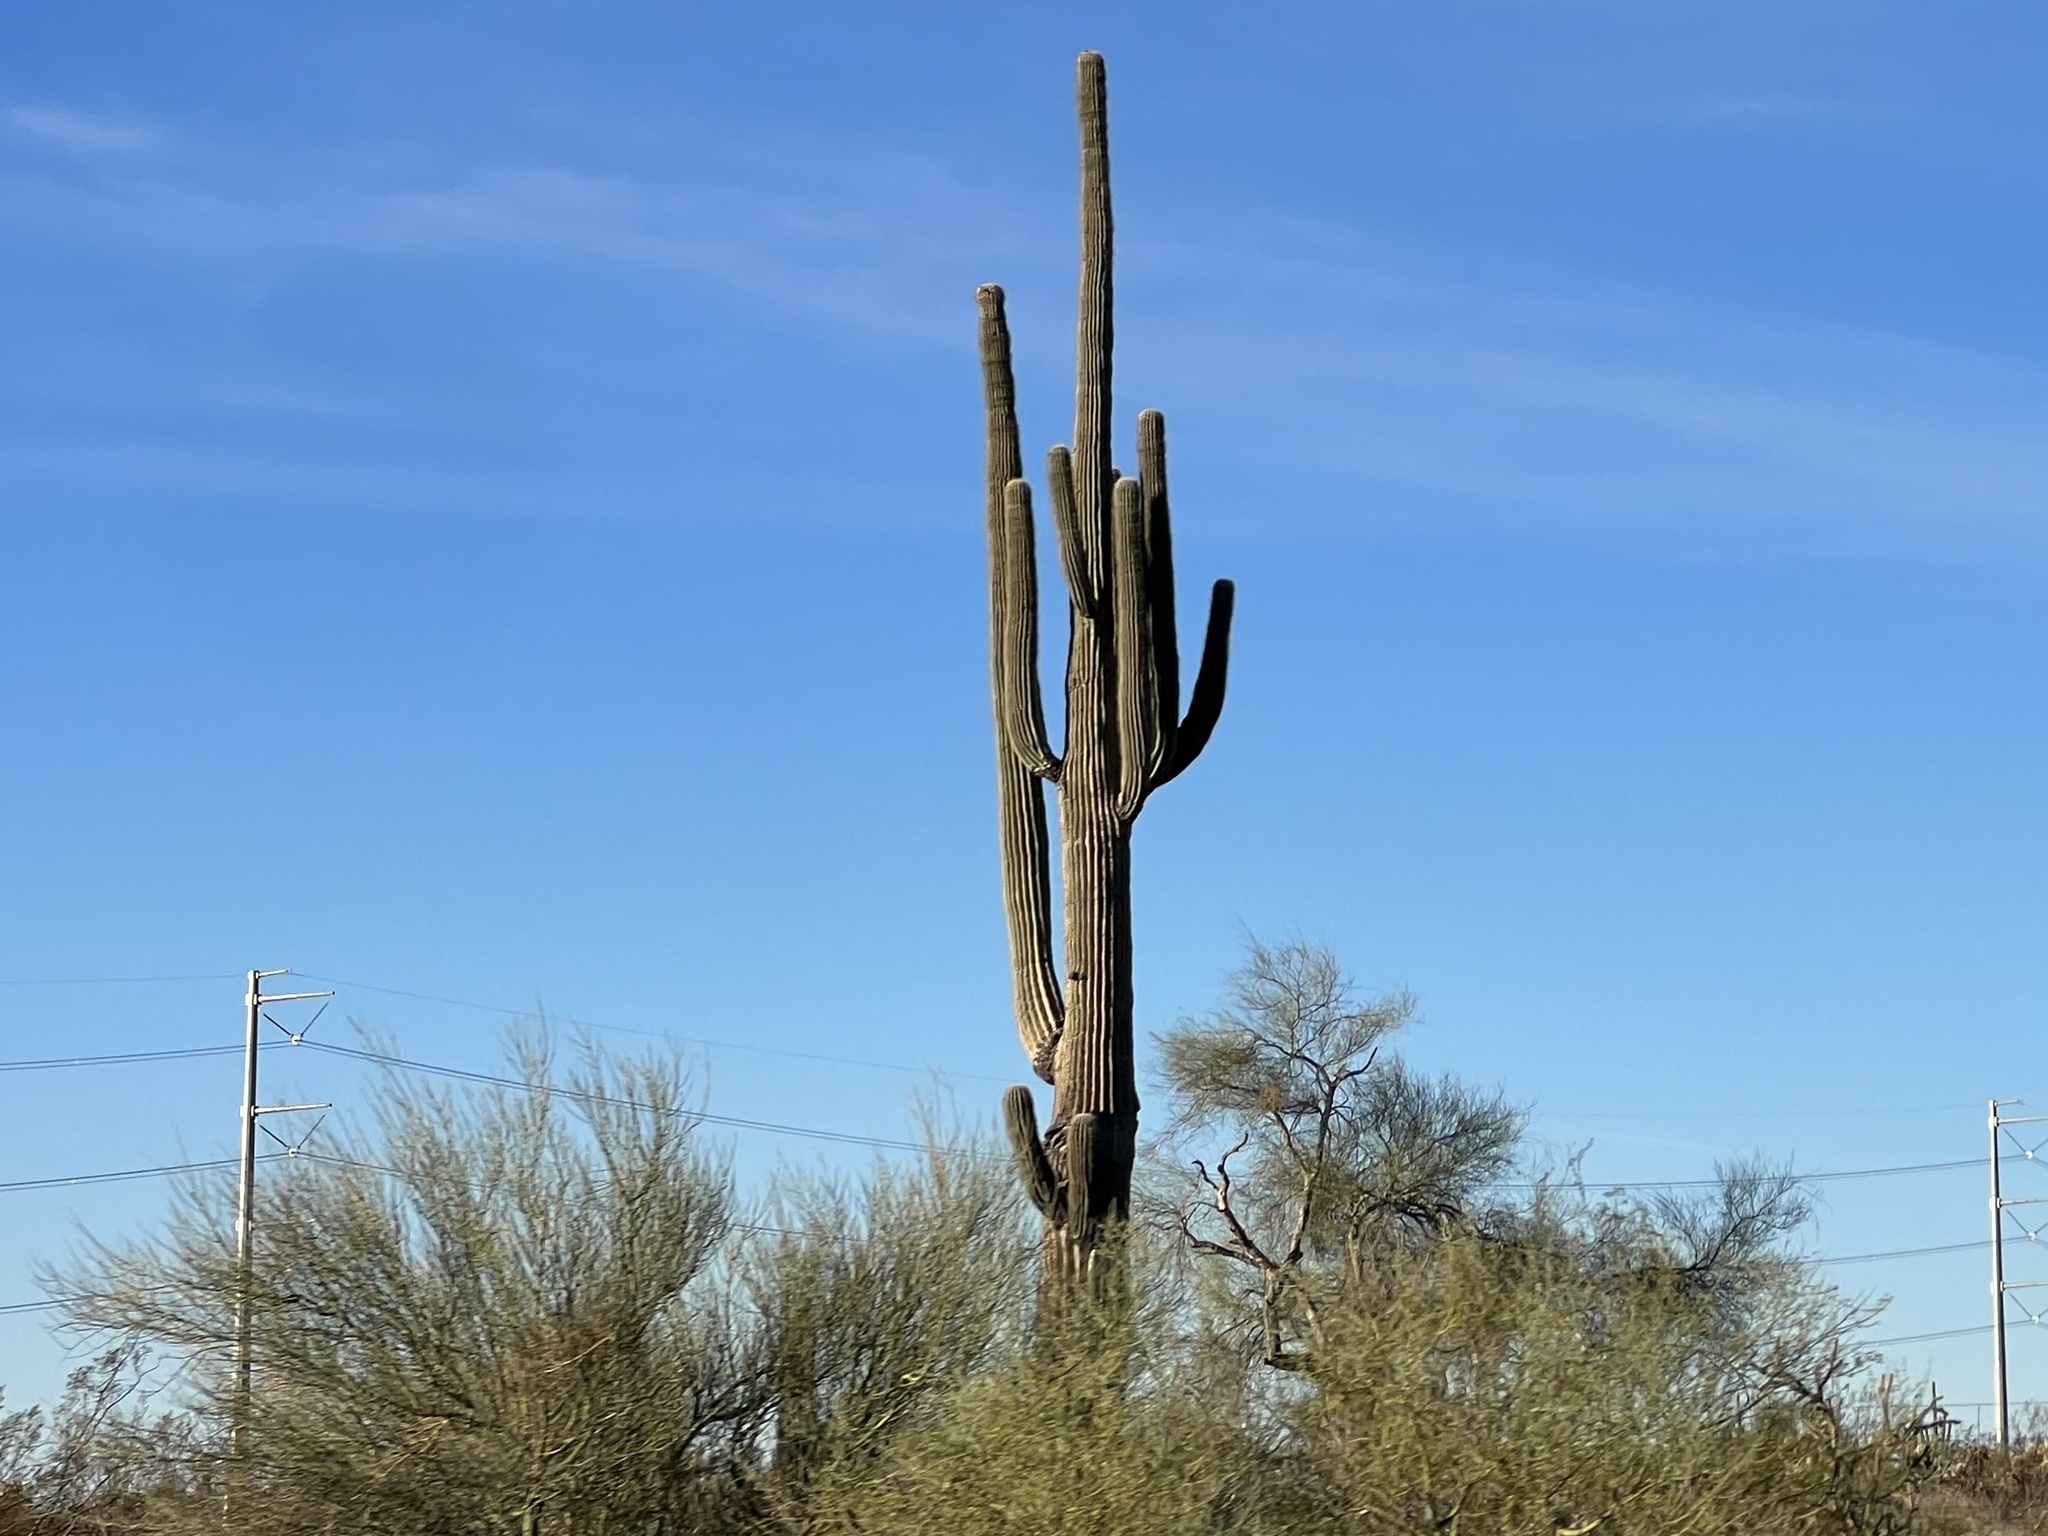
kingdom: Plantae
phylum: Tracheophyta
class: Magnoliopsida
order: Caryophyllales
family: Cactaceae
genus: Carnegiea
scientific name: Carnegiea gigantea
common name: Saguaro
